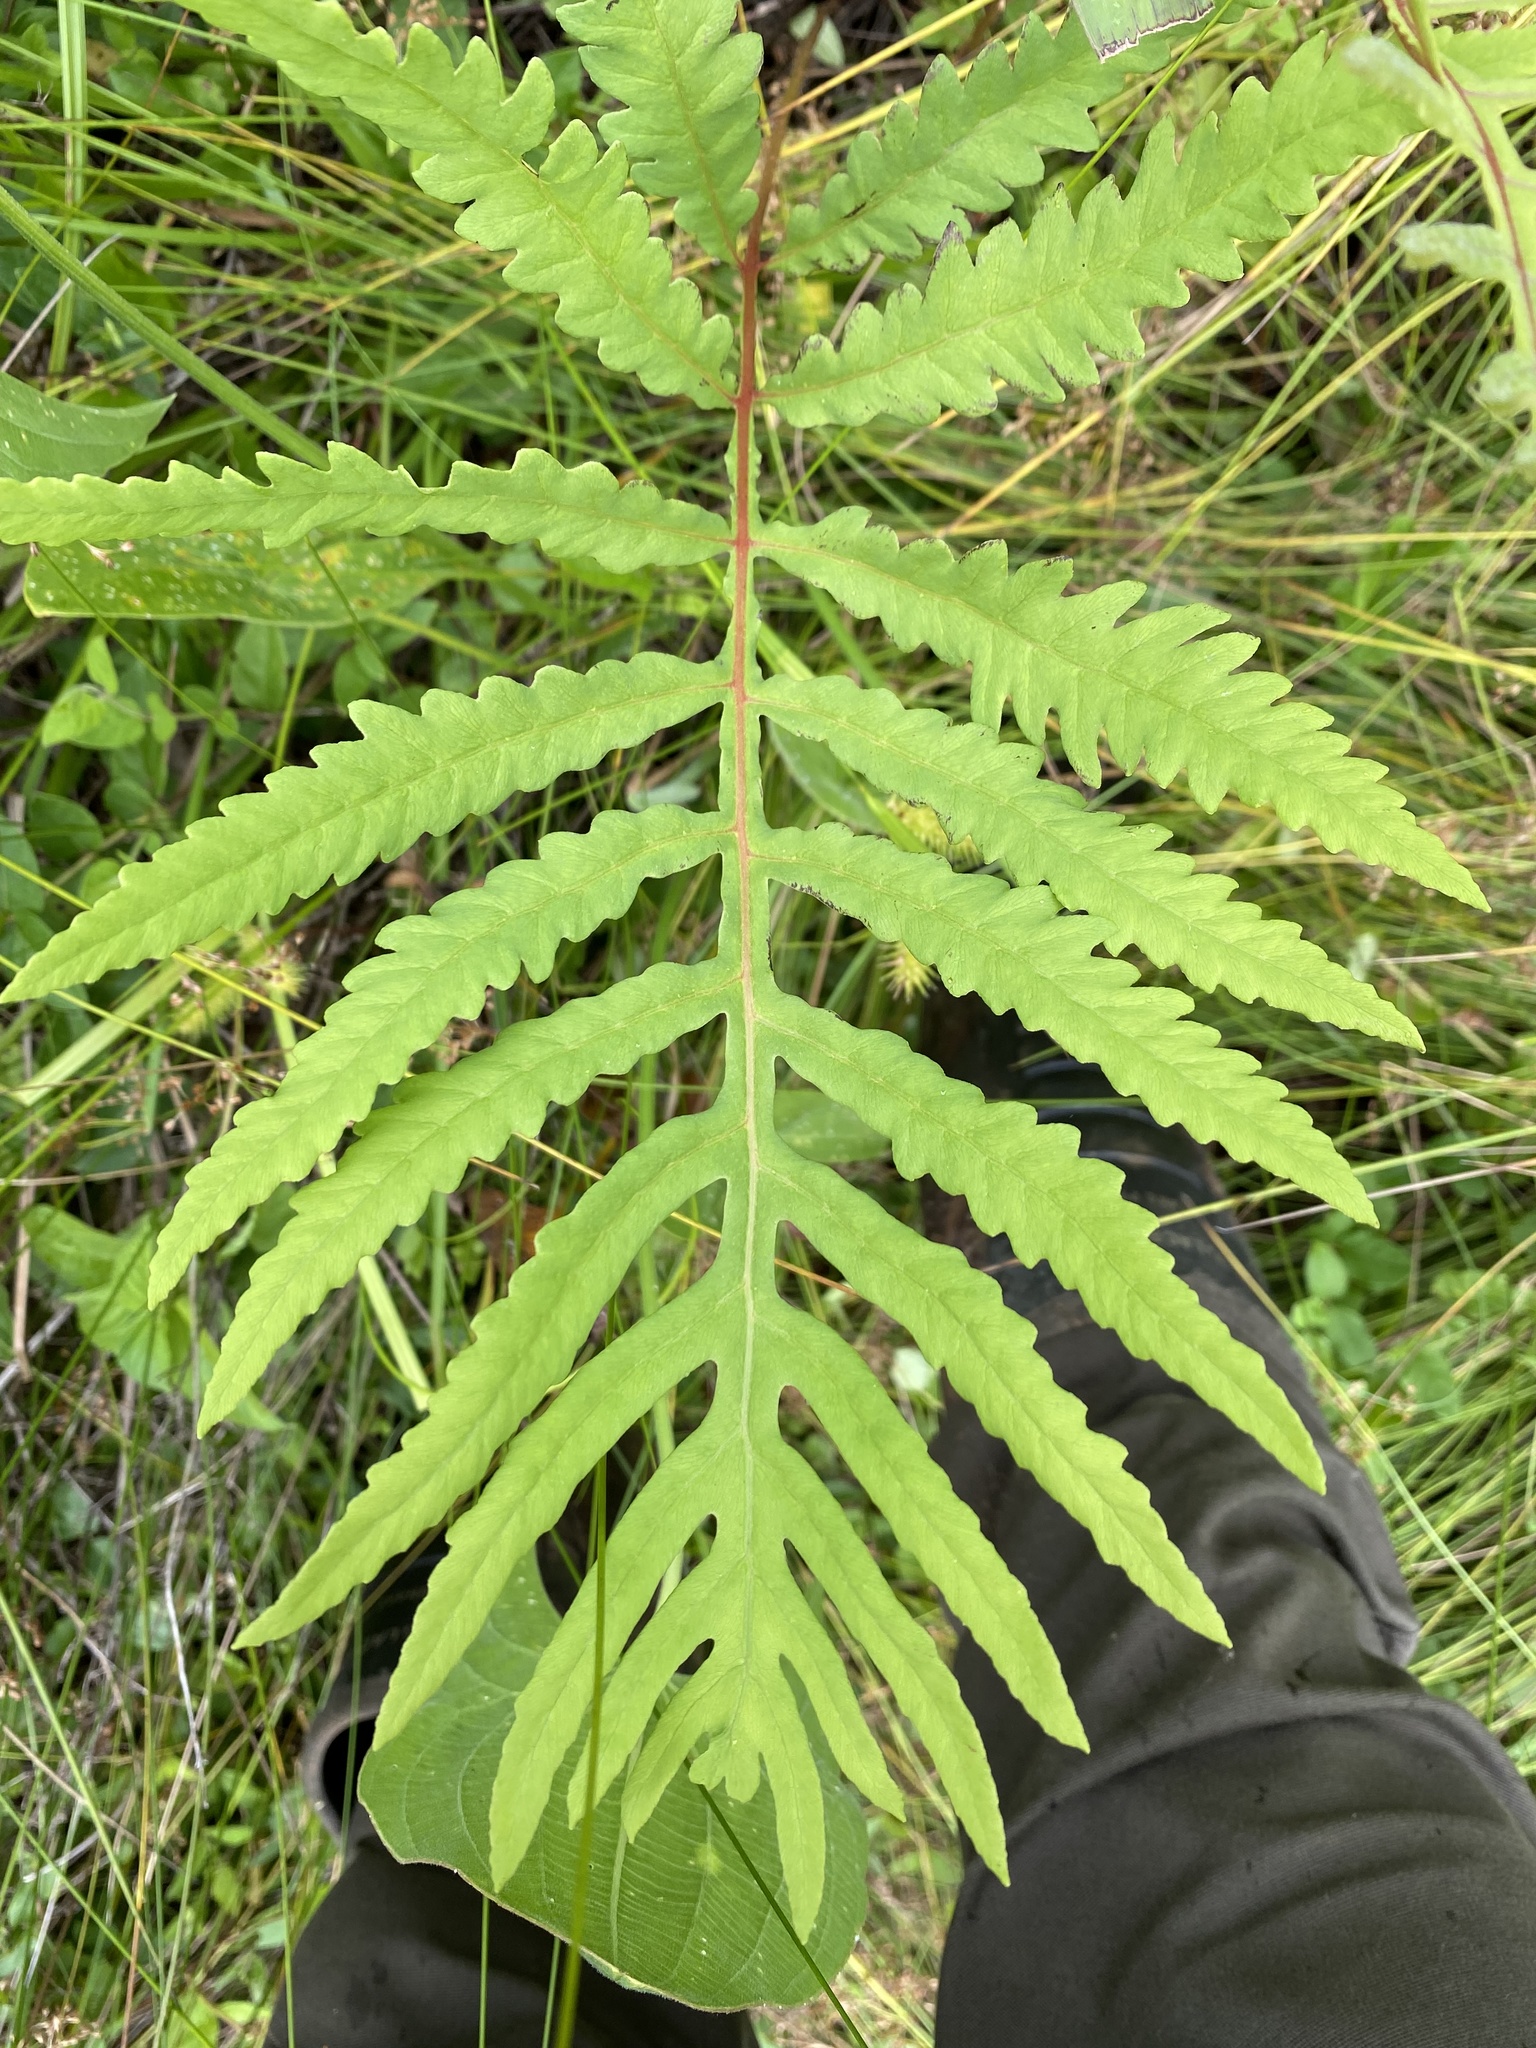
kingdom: Plantae
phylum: Tracheophyta
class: Polypodiopsida
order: Polypodiales
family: Onocleaceae
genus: Onoclea
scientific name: Onoclea sensibilis
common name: Sensitive fern
